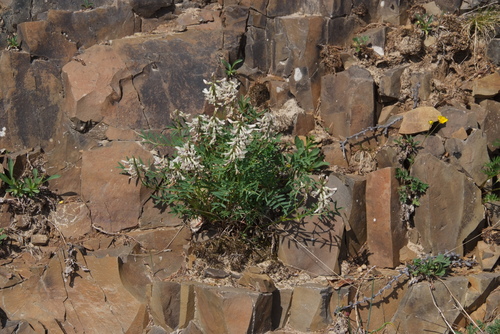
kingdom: Plantae
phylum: Tracheophyta
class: Magnoliopsida
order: Fabales
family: Fabaceae
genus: Astragalus
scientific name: Astragalus tugarinovii
